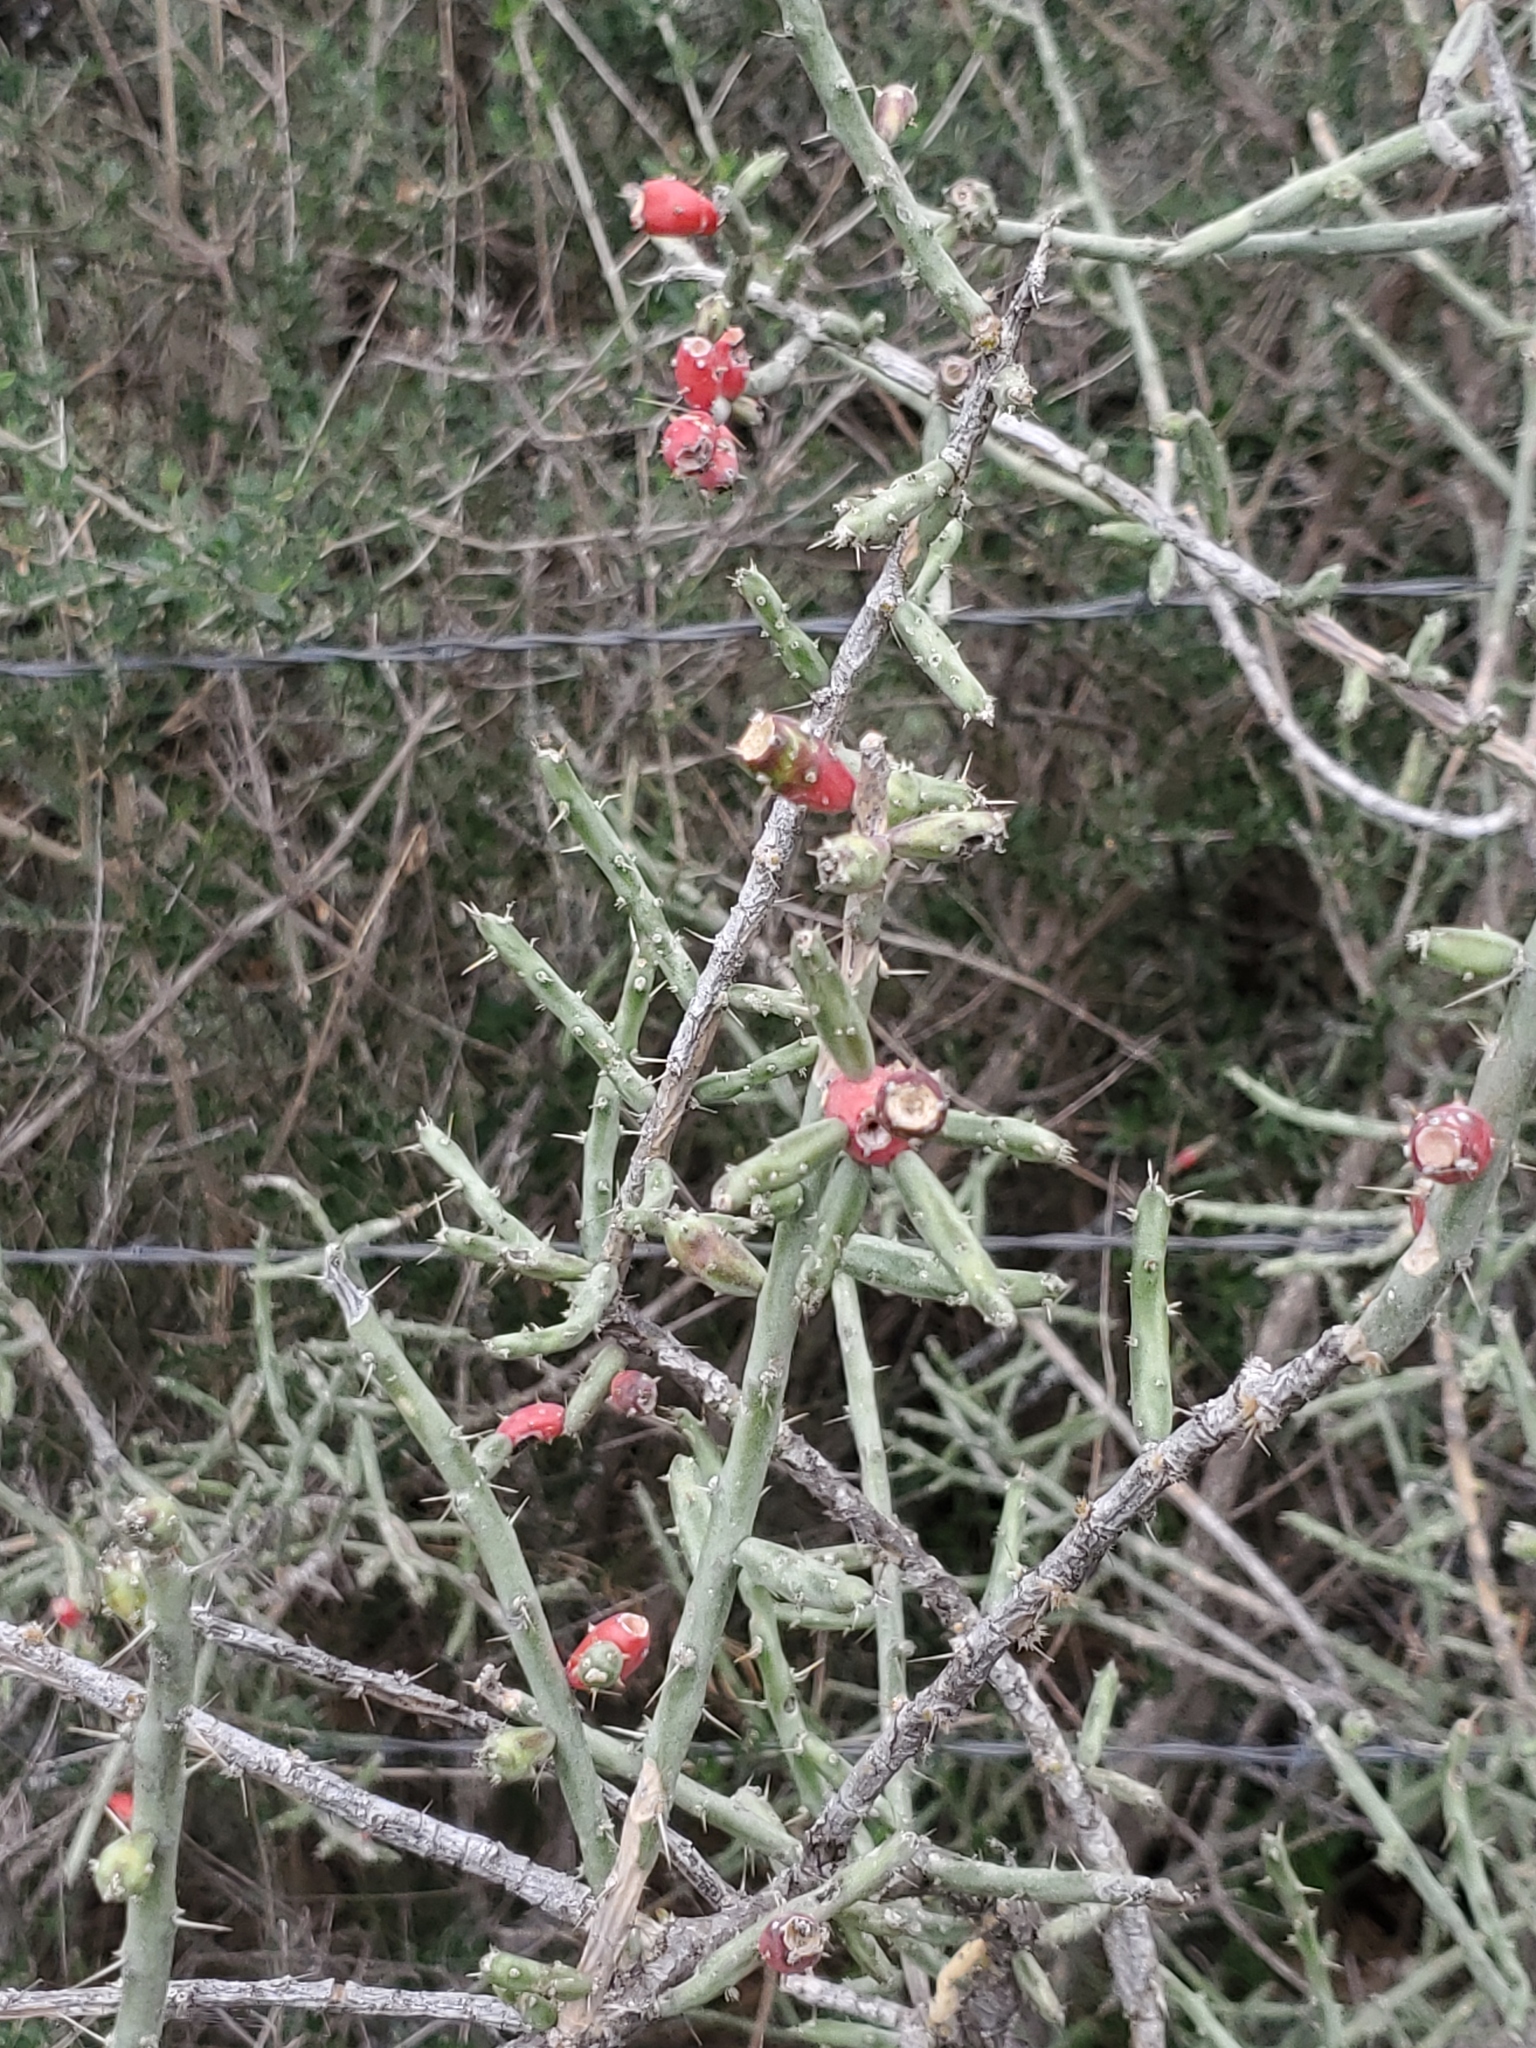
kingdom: Plantae
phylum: Tracheophyta
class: Magnoliopsida
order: Caryophyllales
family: Cactaceae
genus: Cylindropuntia
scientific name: Cylindropuntia leptocaulis
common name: Christmas cactus
